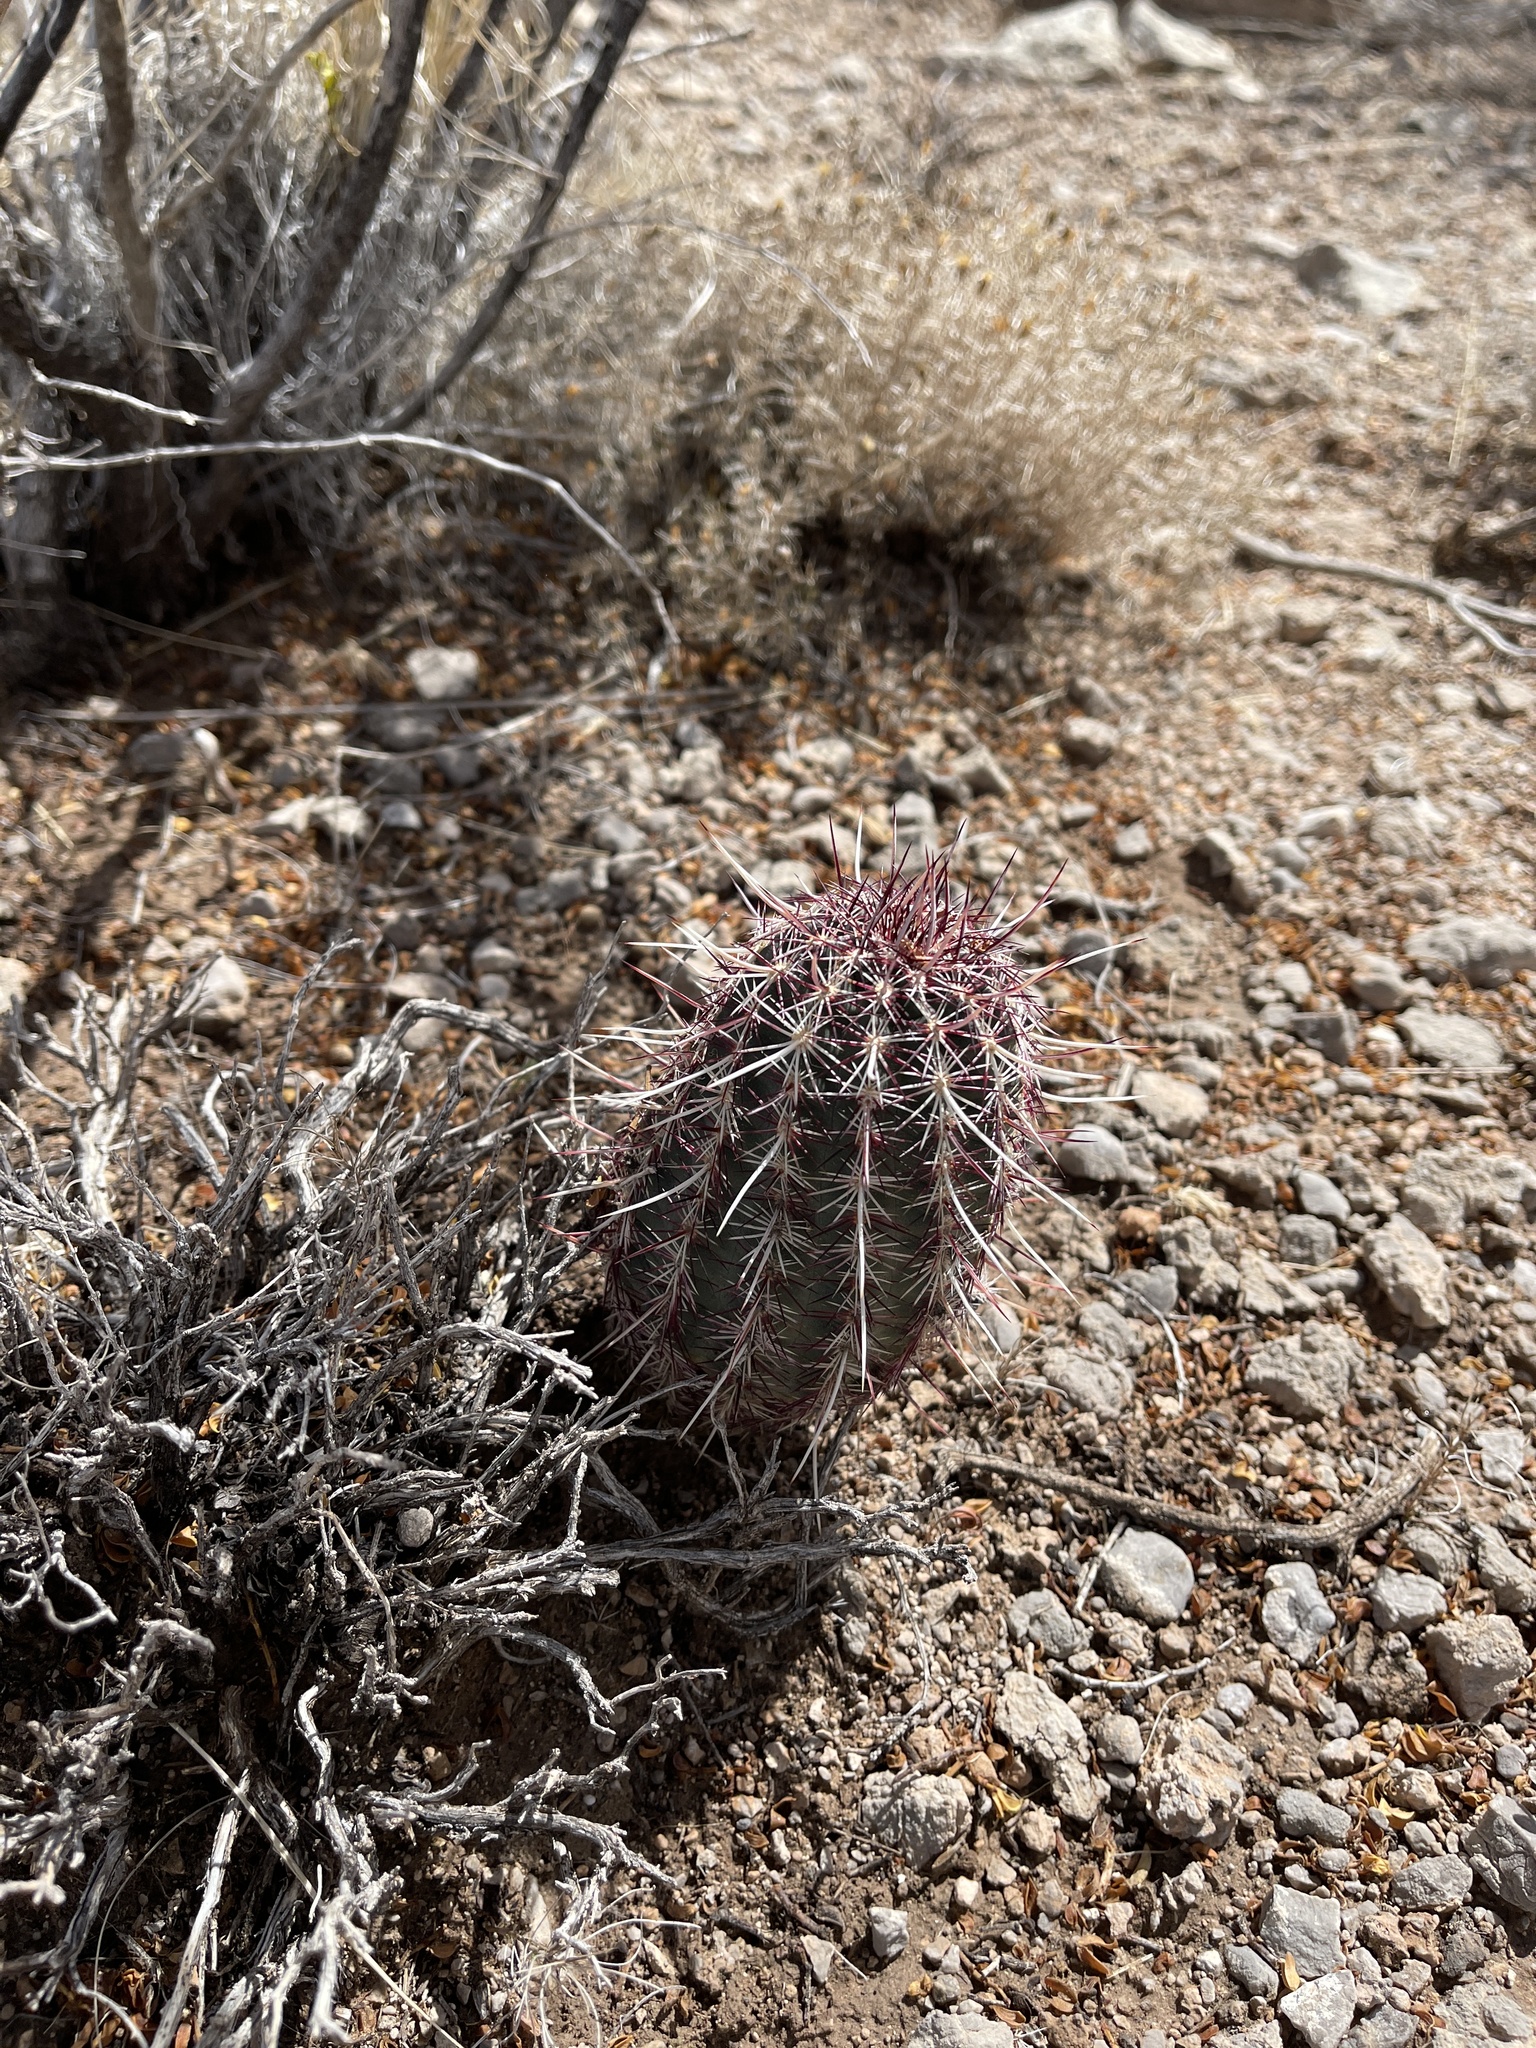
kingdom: Plantae
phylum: Tracheophyta
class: Magnoliopsida
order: Caryophyllales
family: Cactaceae
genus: Echinocereus
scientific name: Echinocereus viridiflorus
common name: Nylon hedgehog cactus
